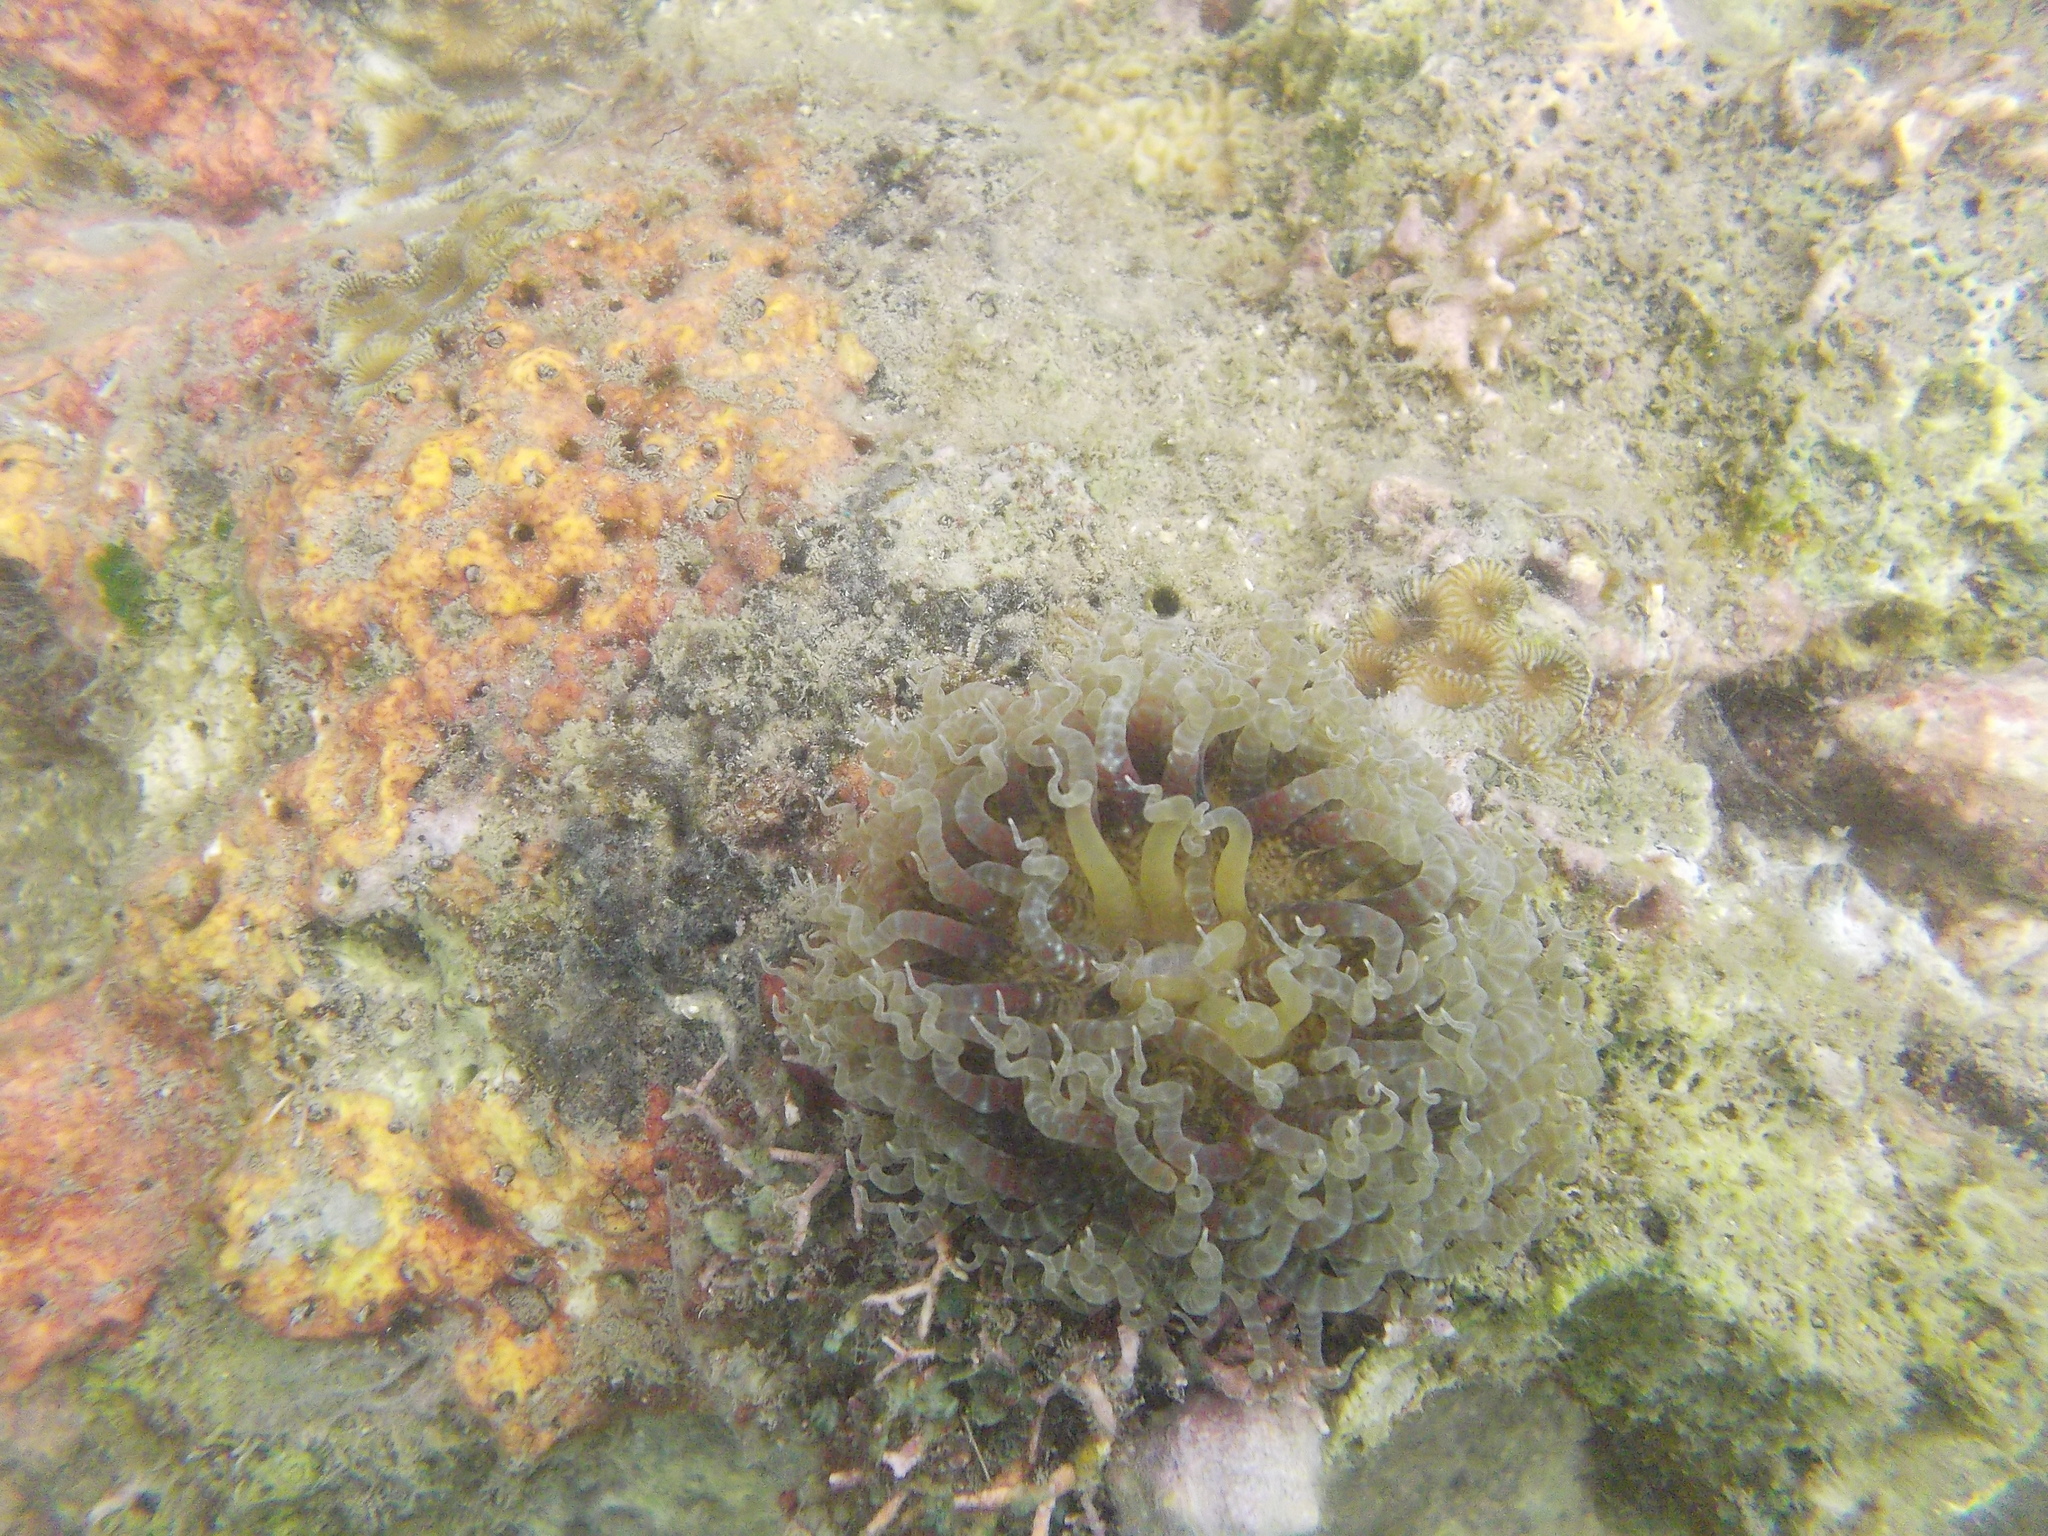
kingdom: Animalia
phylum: Cnidaria
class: Anthozoa
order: Actiniaria
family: Boloceroididae
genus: Boloceroides
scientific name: Boloceroides mcmurrichi
